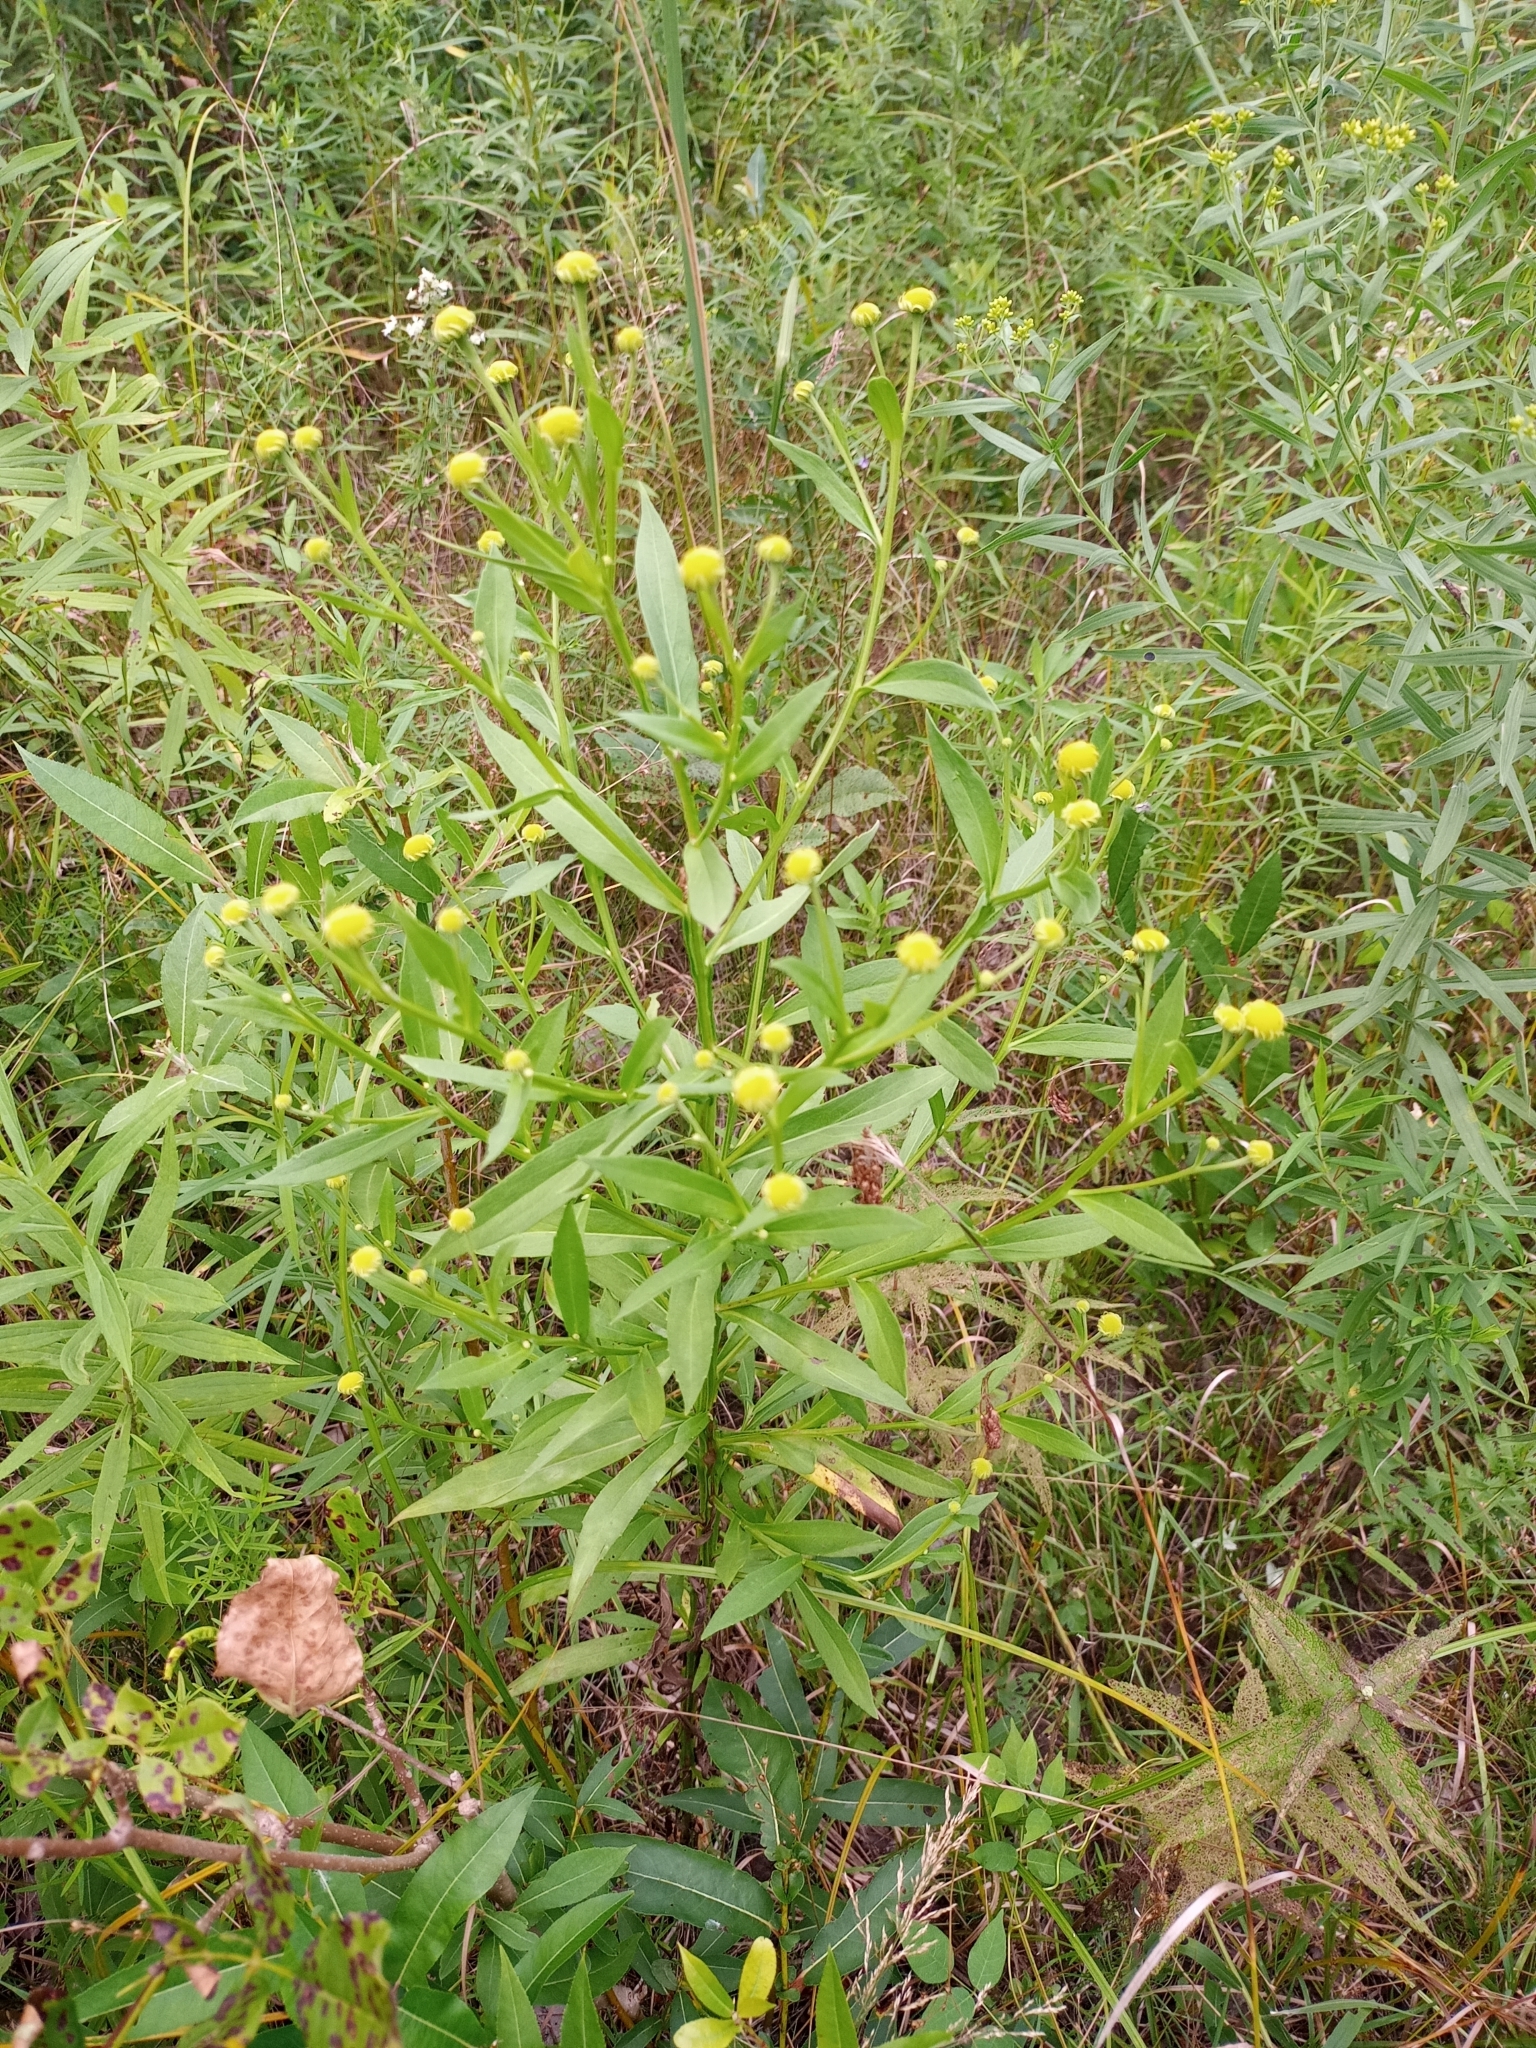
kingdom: Plantae
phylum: Tracheophyta
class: Magnoliopsida
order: Asterales
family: Asteraceae
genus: Helenium
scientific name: Helenium autumnale
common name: Sneezeweed
